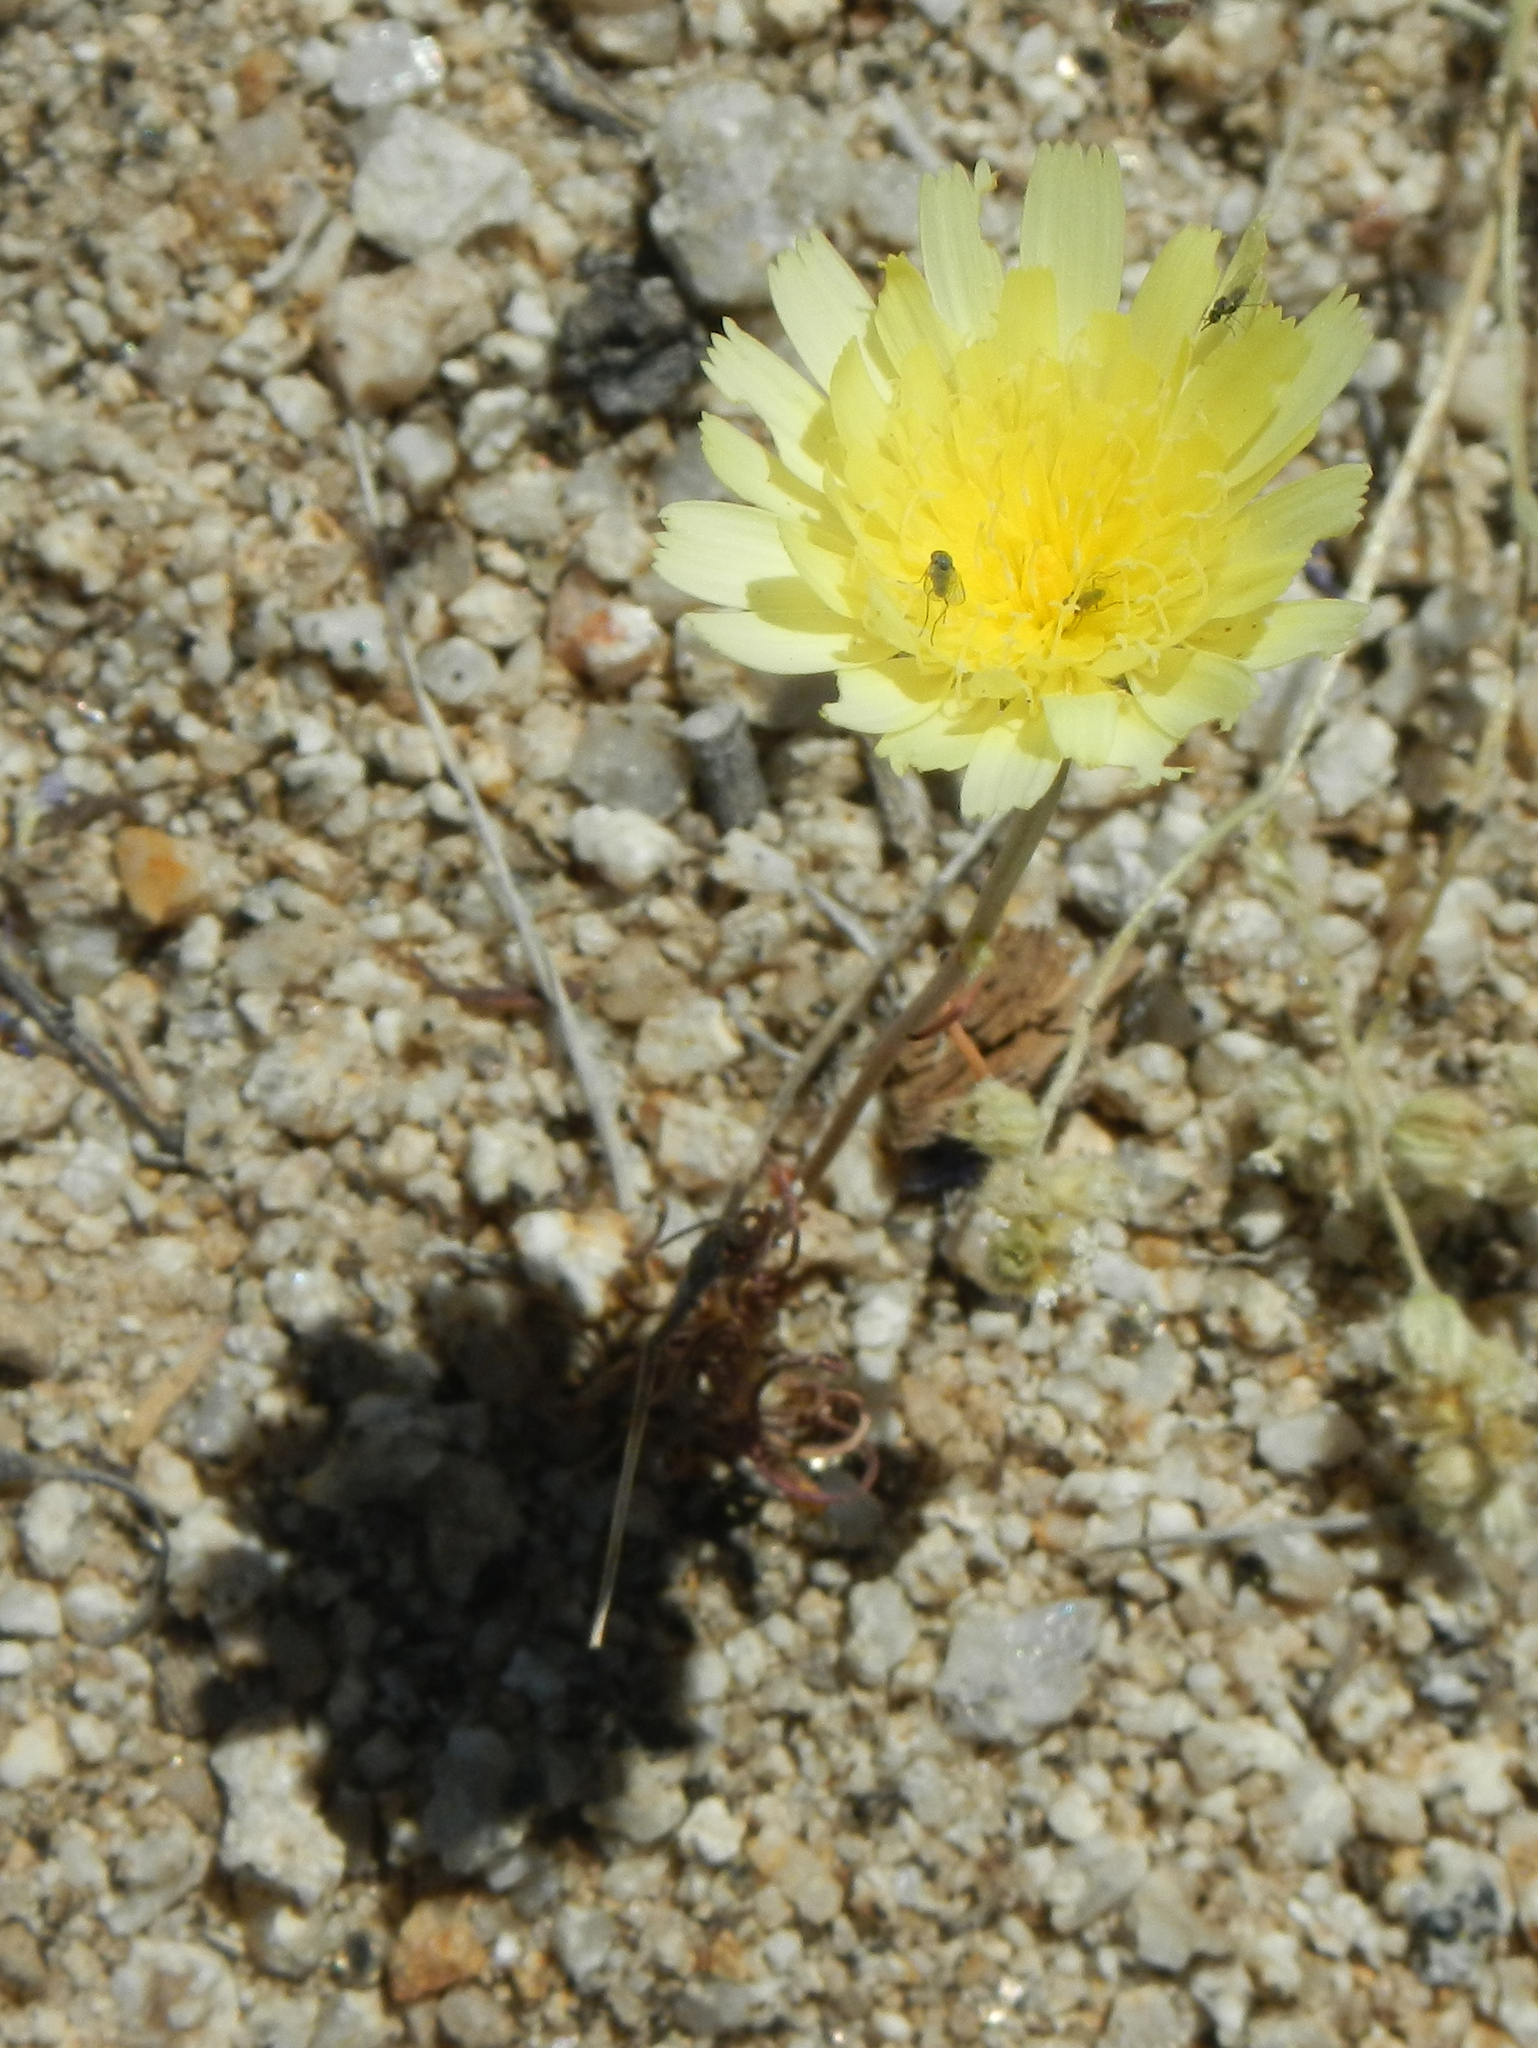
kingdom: Plantae
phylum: Tracheophyta
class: Magnoliopsida
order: Asterales
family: Asteraceae
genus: Malacothrix
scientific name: Malacothrix glabrata
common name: Smooth desert-dandelion
